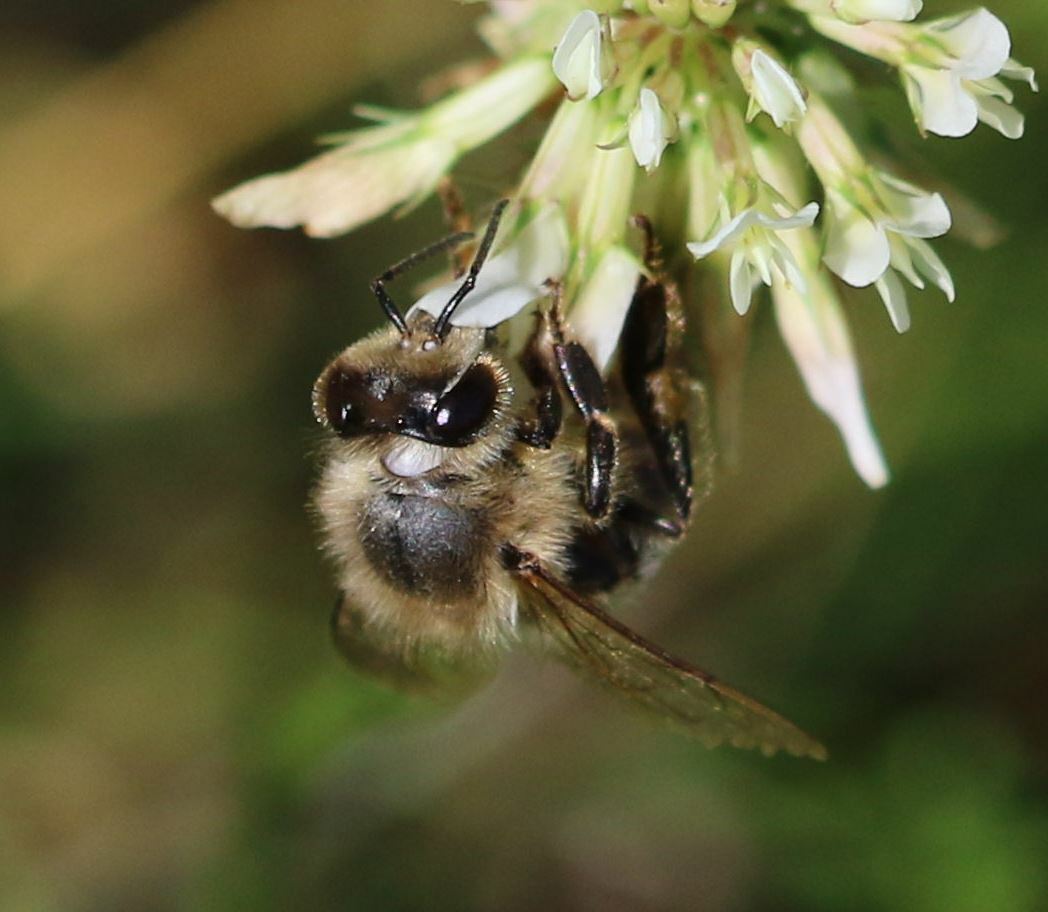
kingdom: Animalia
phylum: Arthropoda
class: Insecta
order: Hymenoptera
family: Apidae
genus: Apis
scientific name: Apis mellifera
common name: Honey bee
